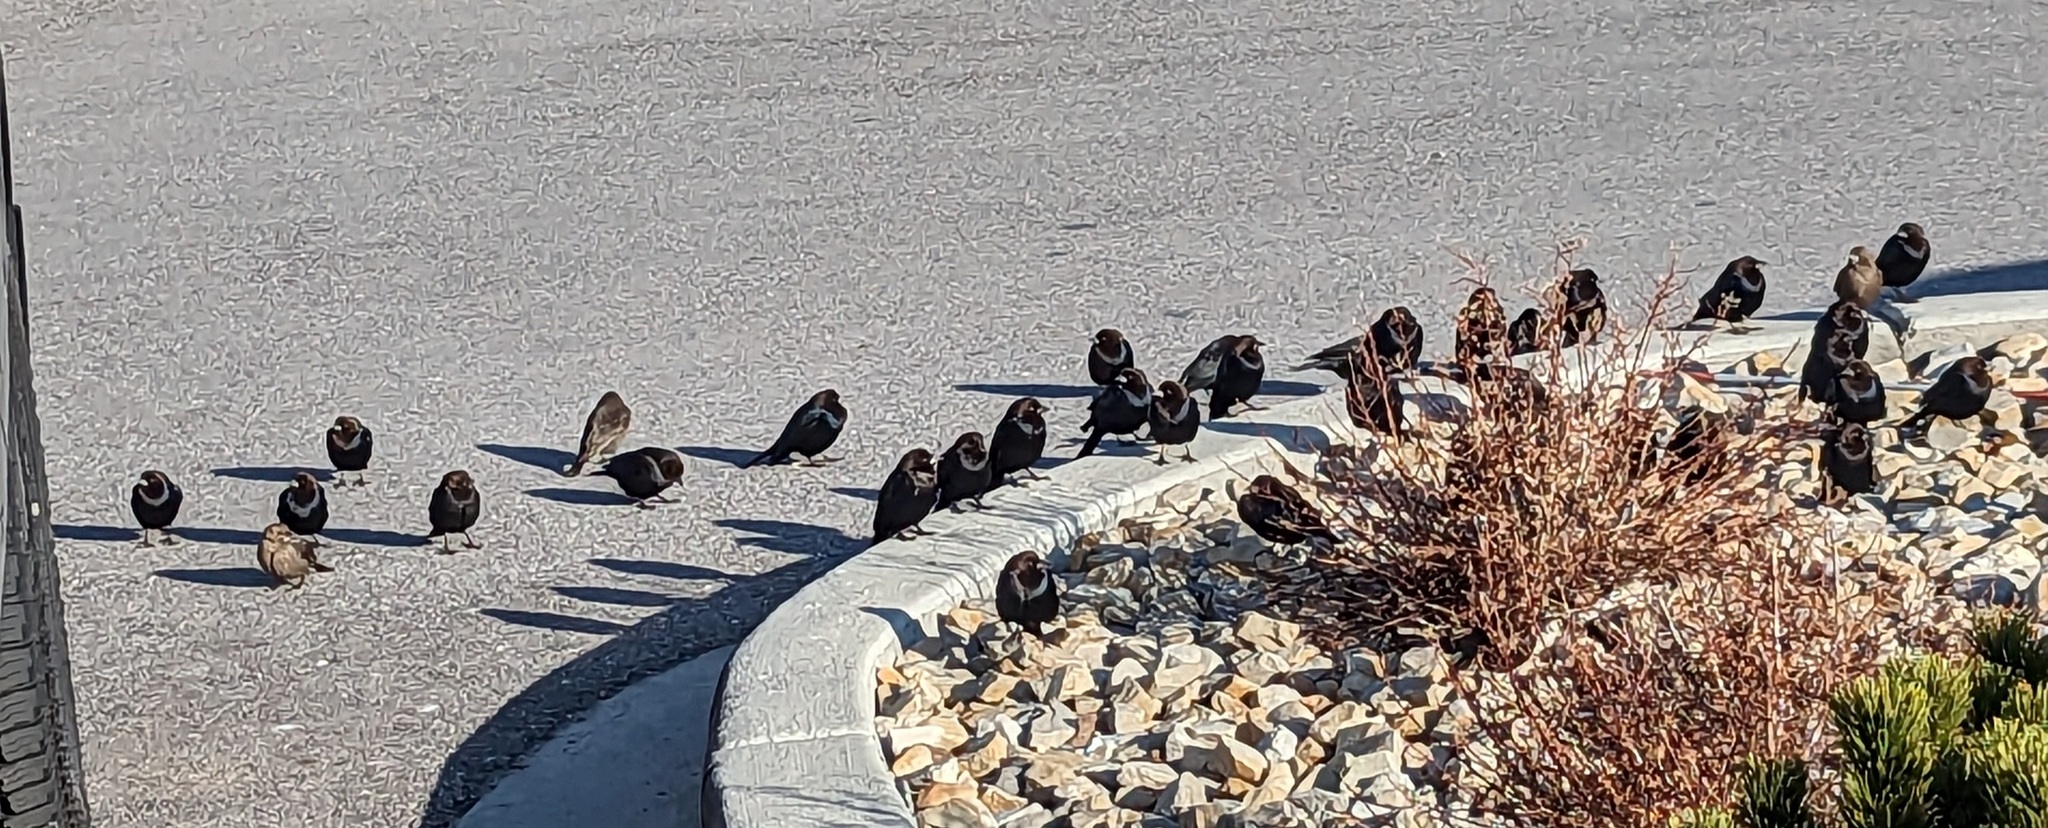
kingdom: Animalia
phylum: Chordata
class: Aves
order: Passeriformes
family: Icteridae
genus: Molothrus
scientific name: Molothrus ater
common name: Brown-headed cowbird
